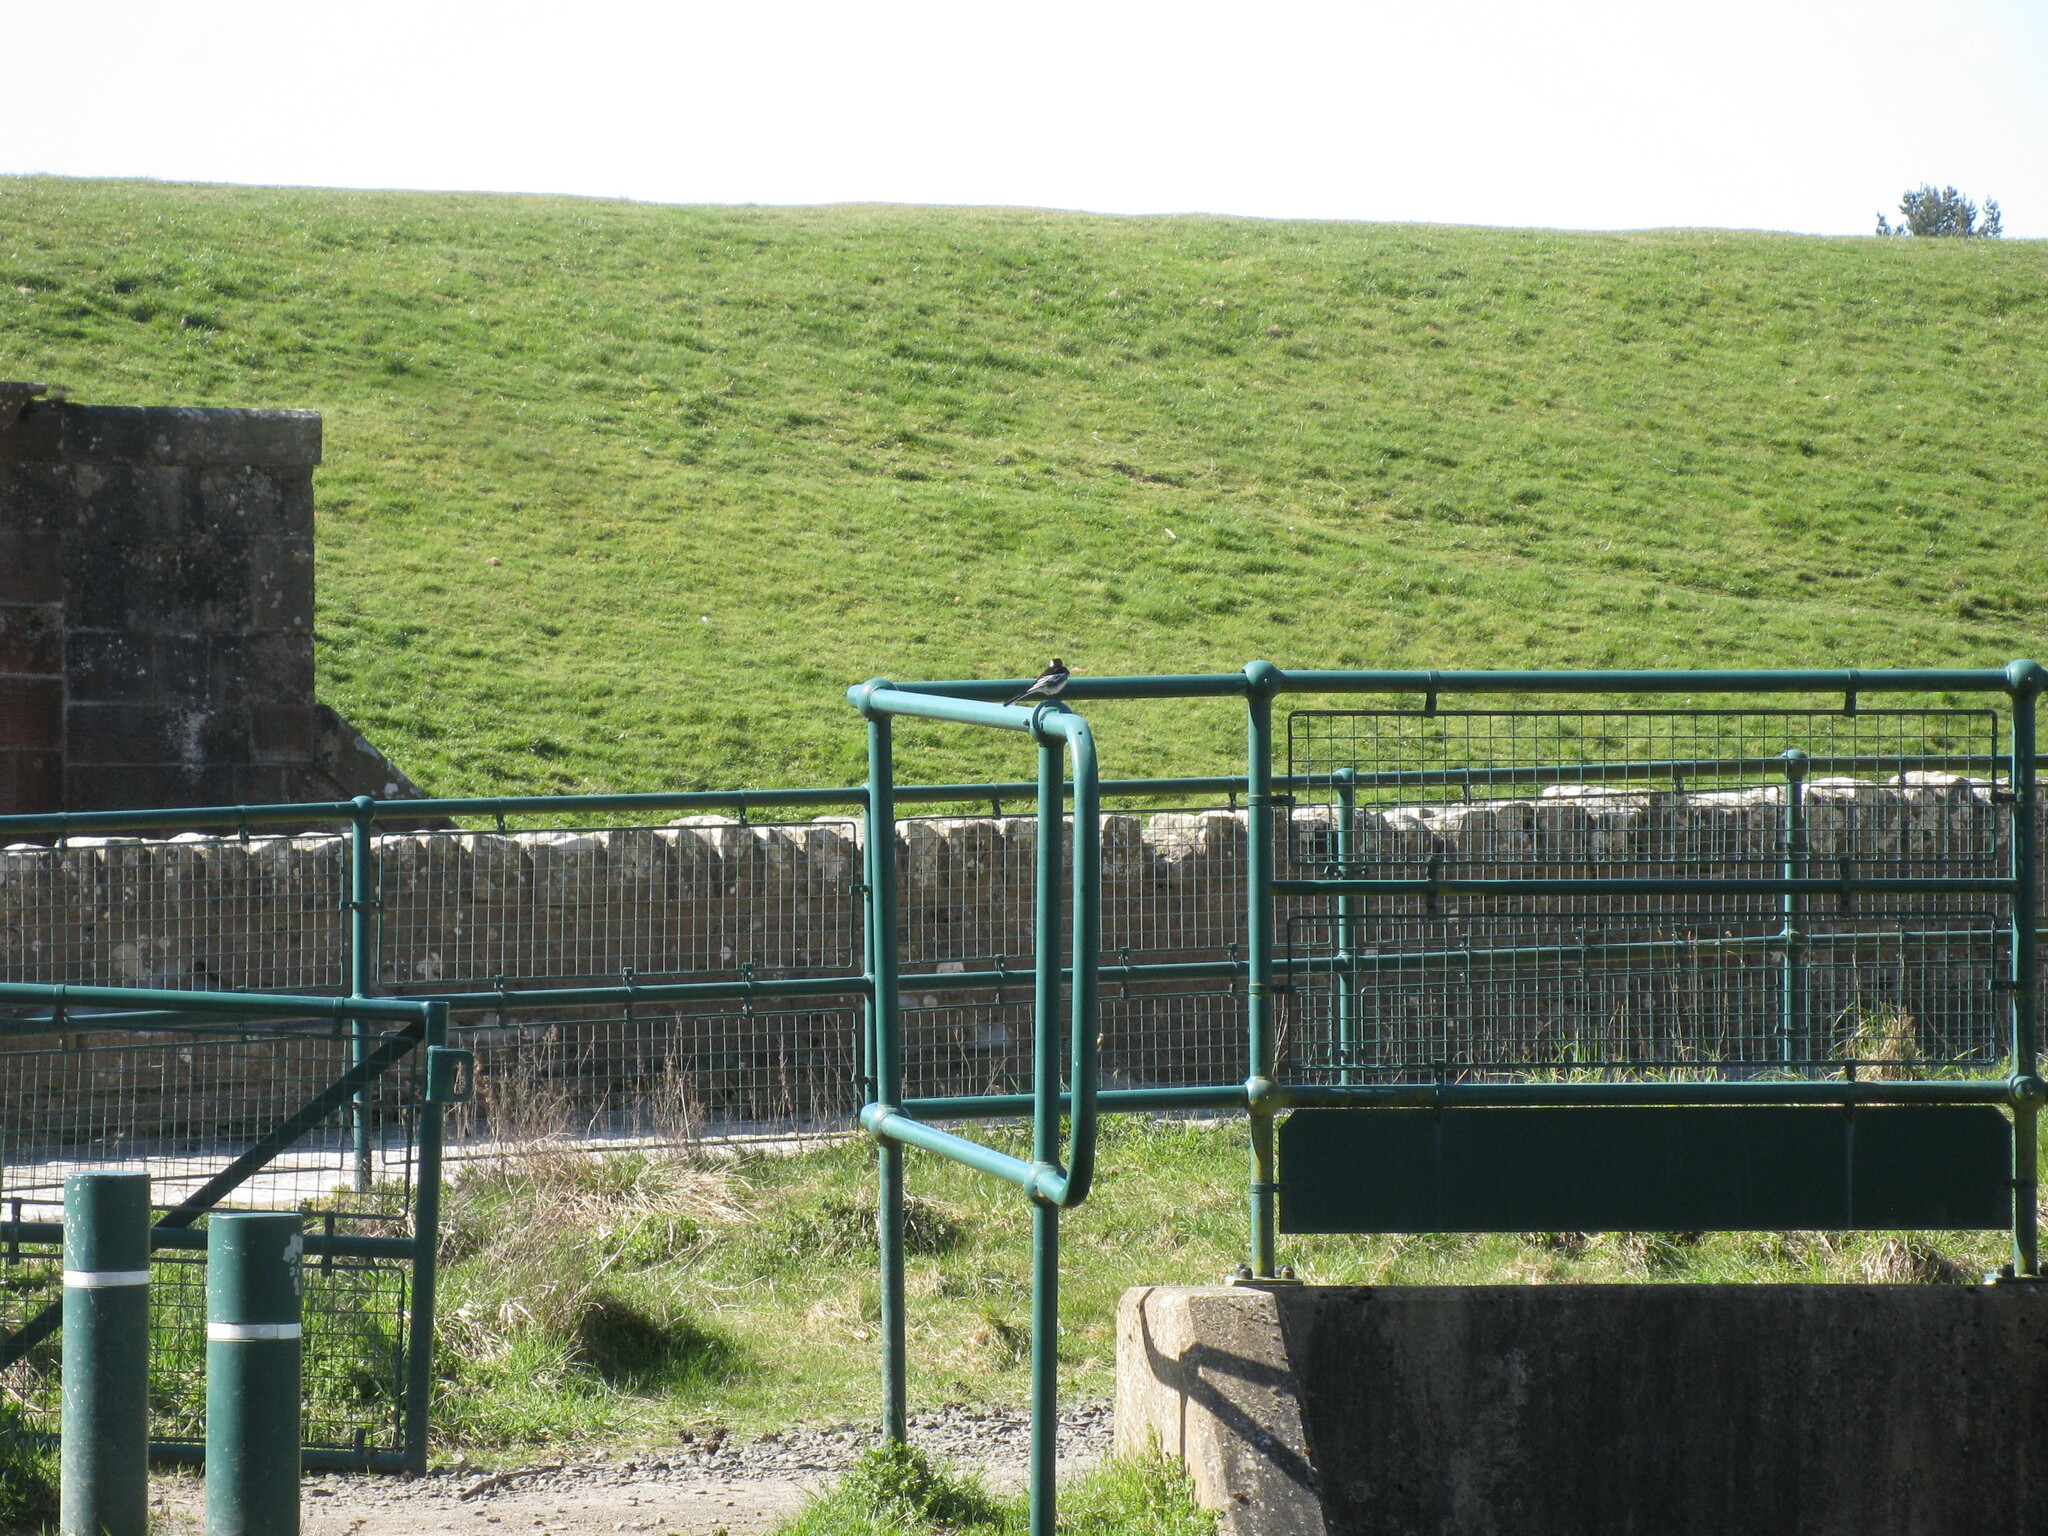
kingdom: Animalia
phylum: Chordata
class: Aves
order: Passeriformes
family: Motacillidae
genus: Motacilla
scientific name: Motacilla alba
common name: White wagtail
